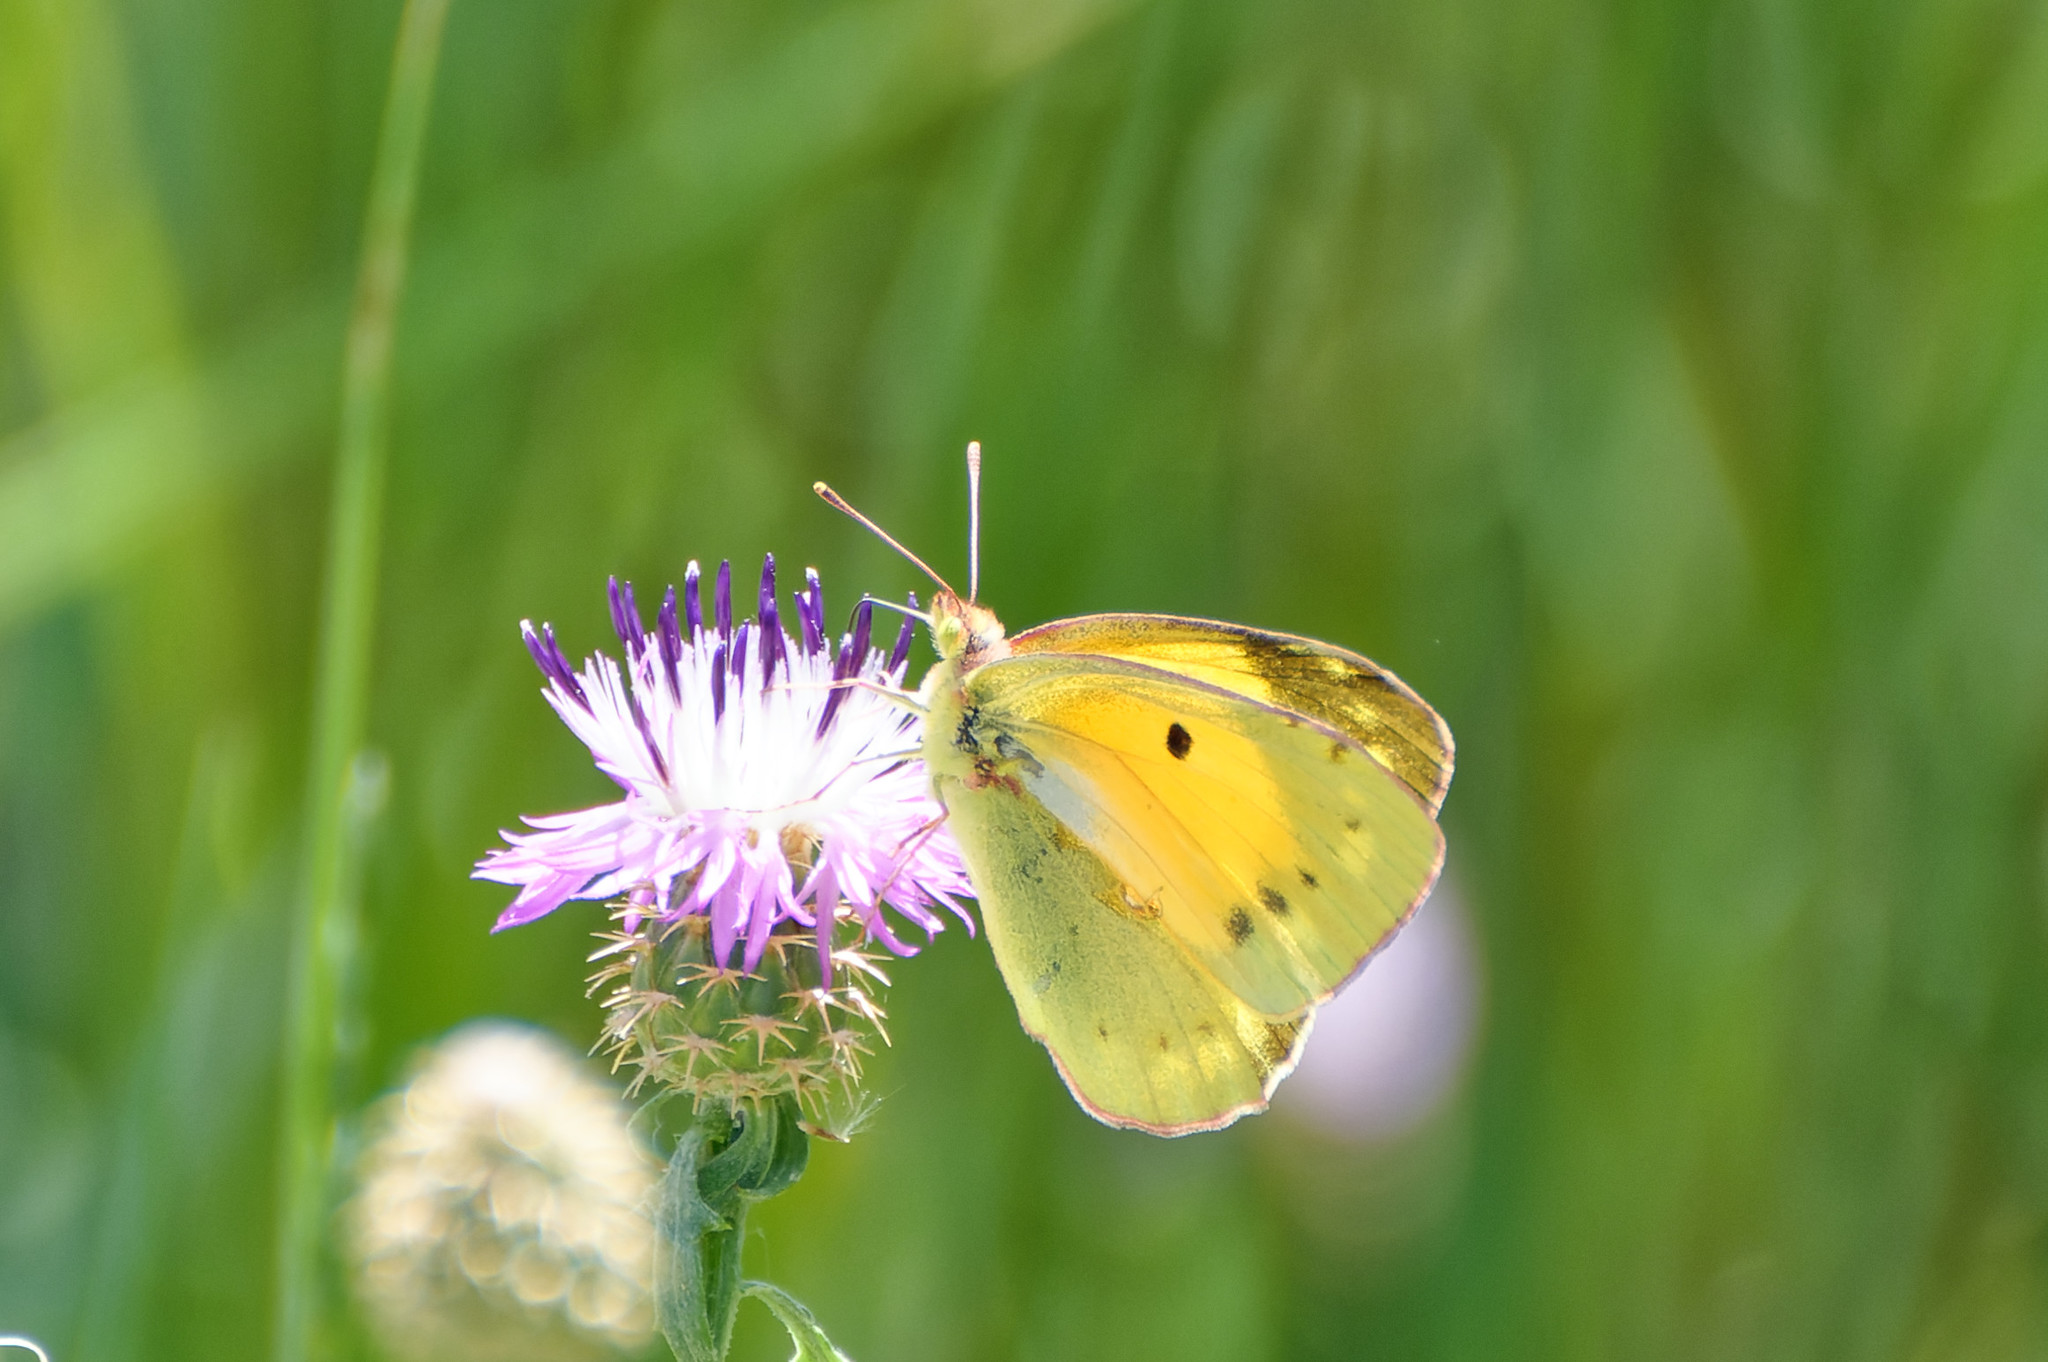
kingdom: Animalia
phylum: Arthropoda
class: Insecta
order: Lepidoptera
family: Pieridae
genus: Colias
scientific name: Colias croceus
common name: Clouded yellow
